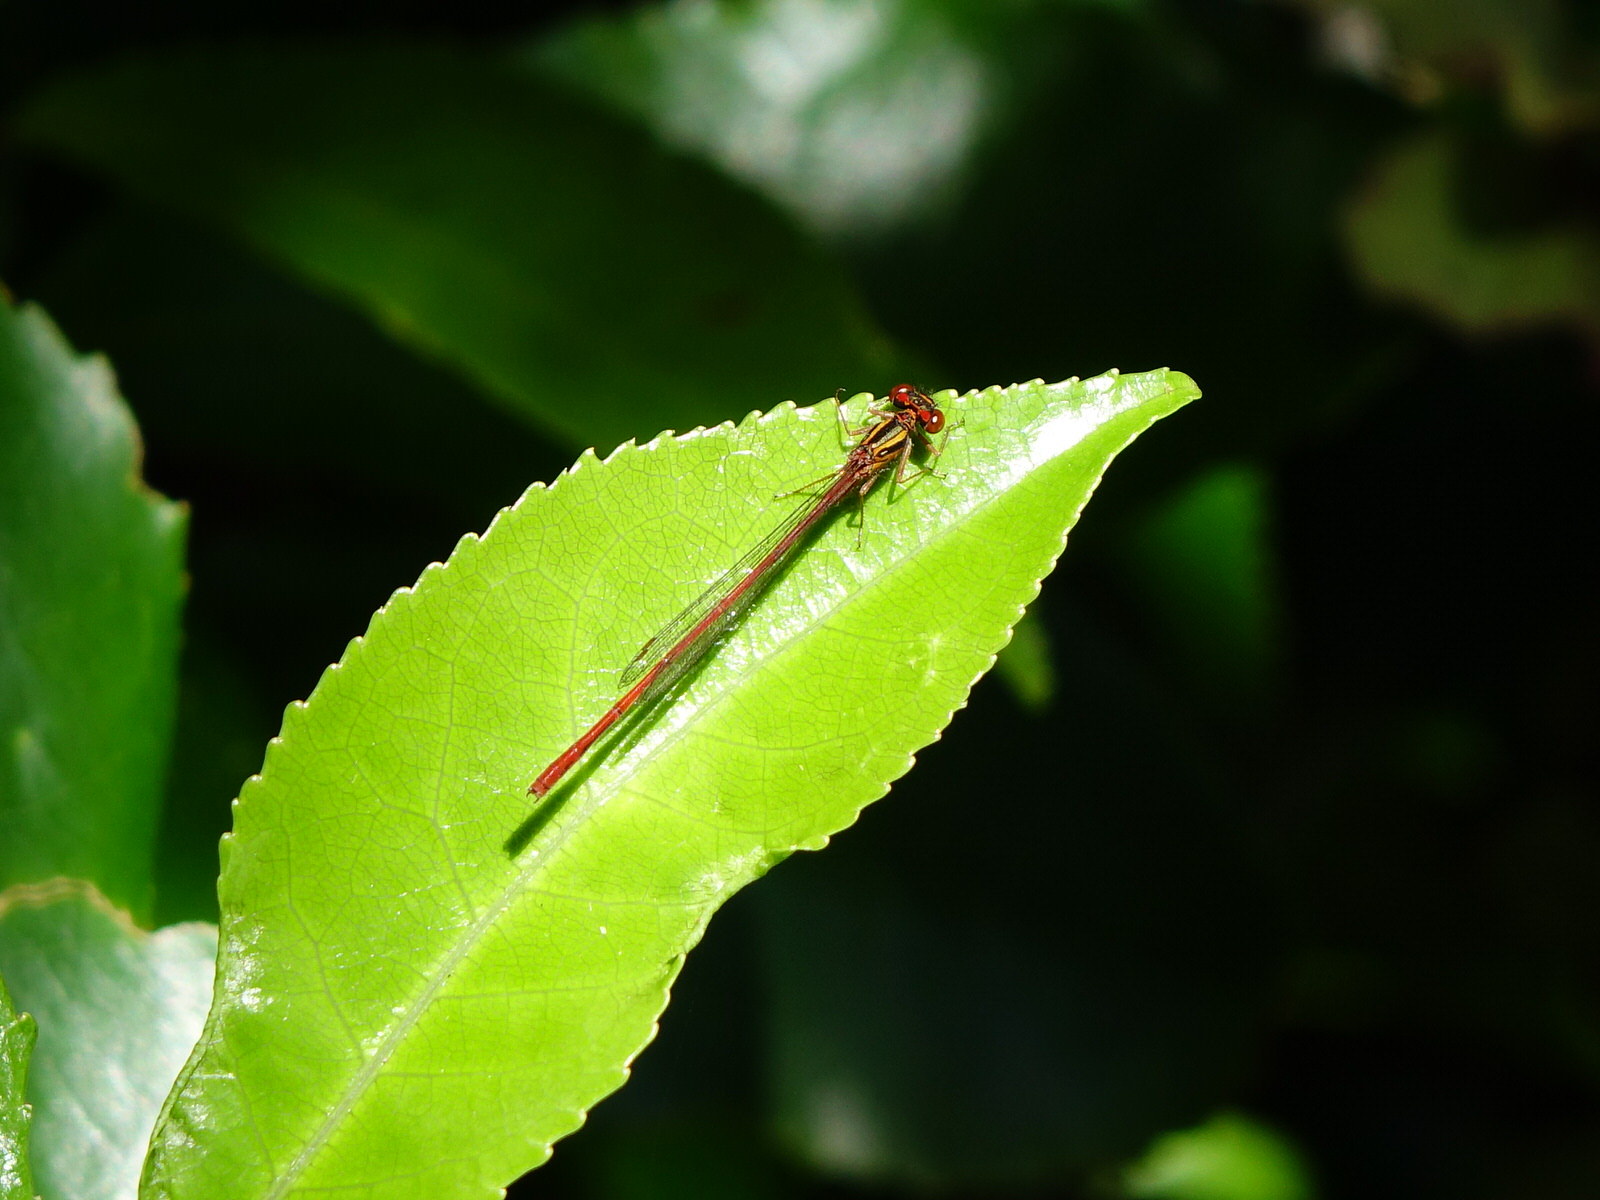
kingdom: Animalia
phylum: Arthropoda
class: Insecta
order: Odonata
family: Coenagrionidae
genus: Xanthocnemis
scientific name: Xanthocnemis zealandica
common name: Common redcoat damselfly
